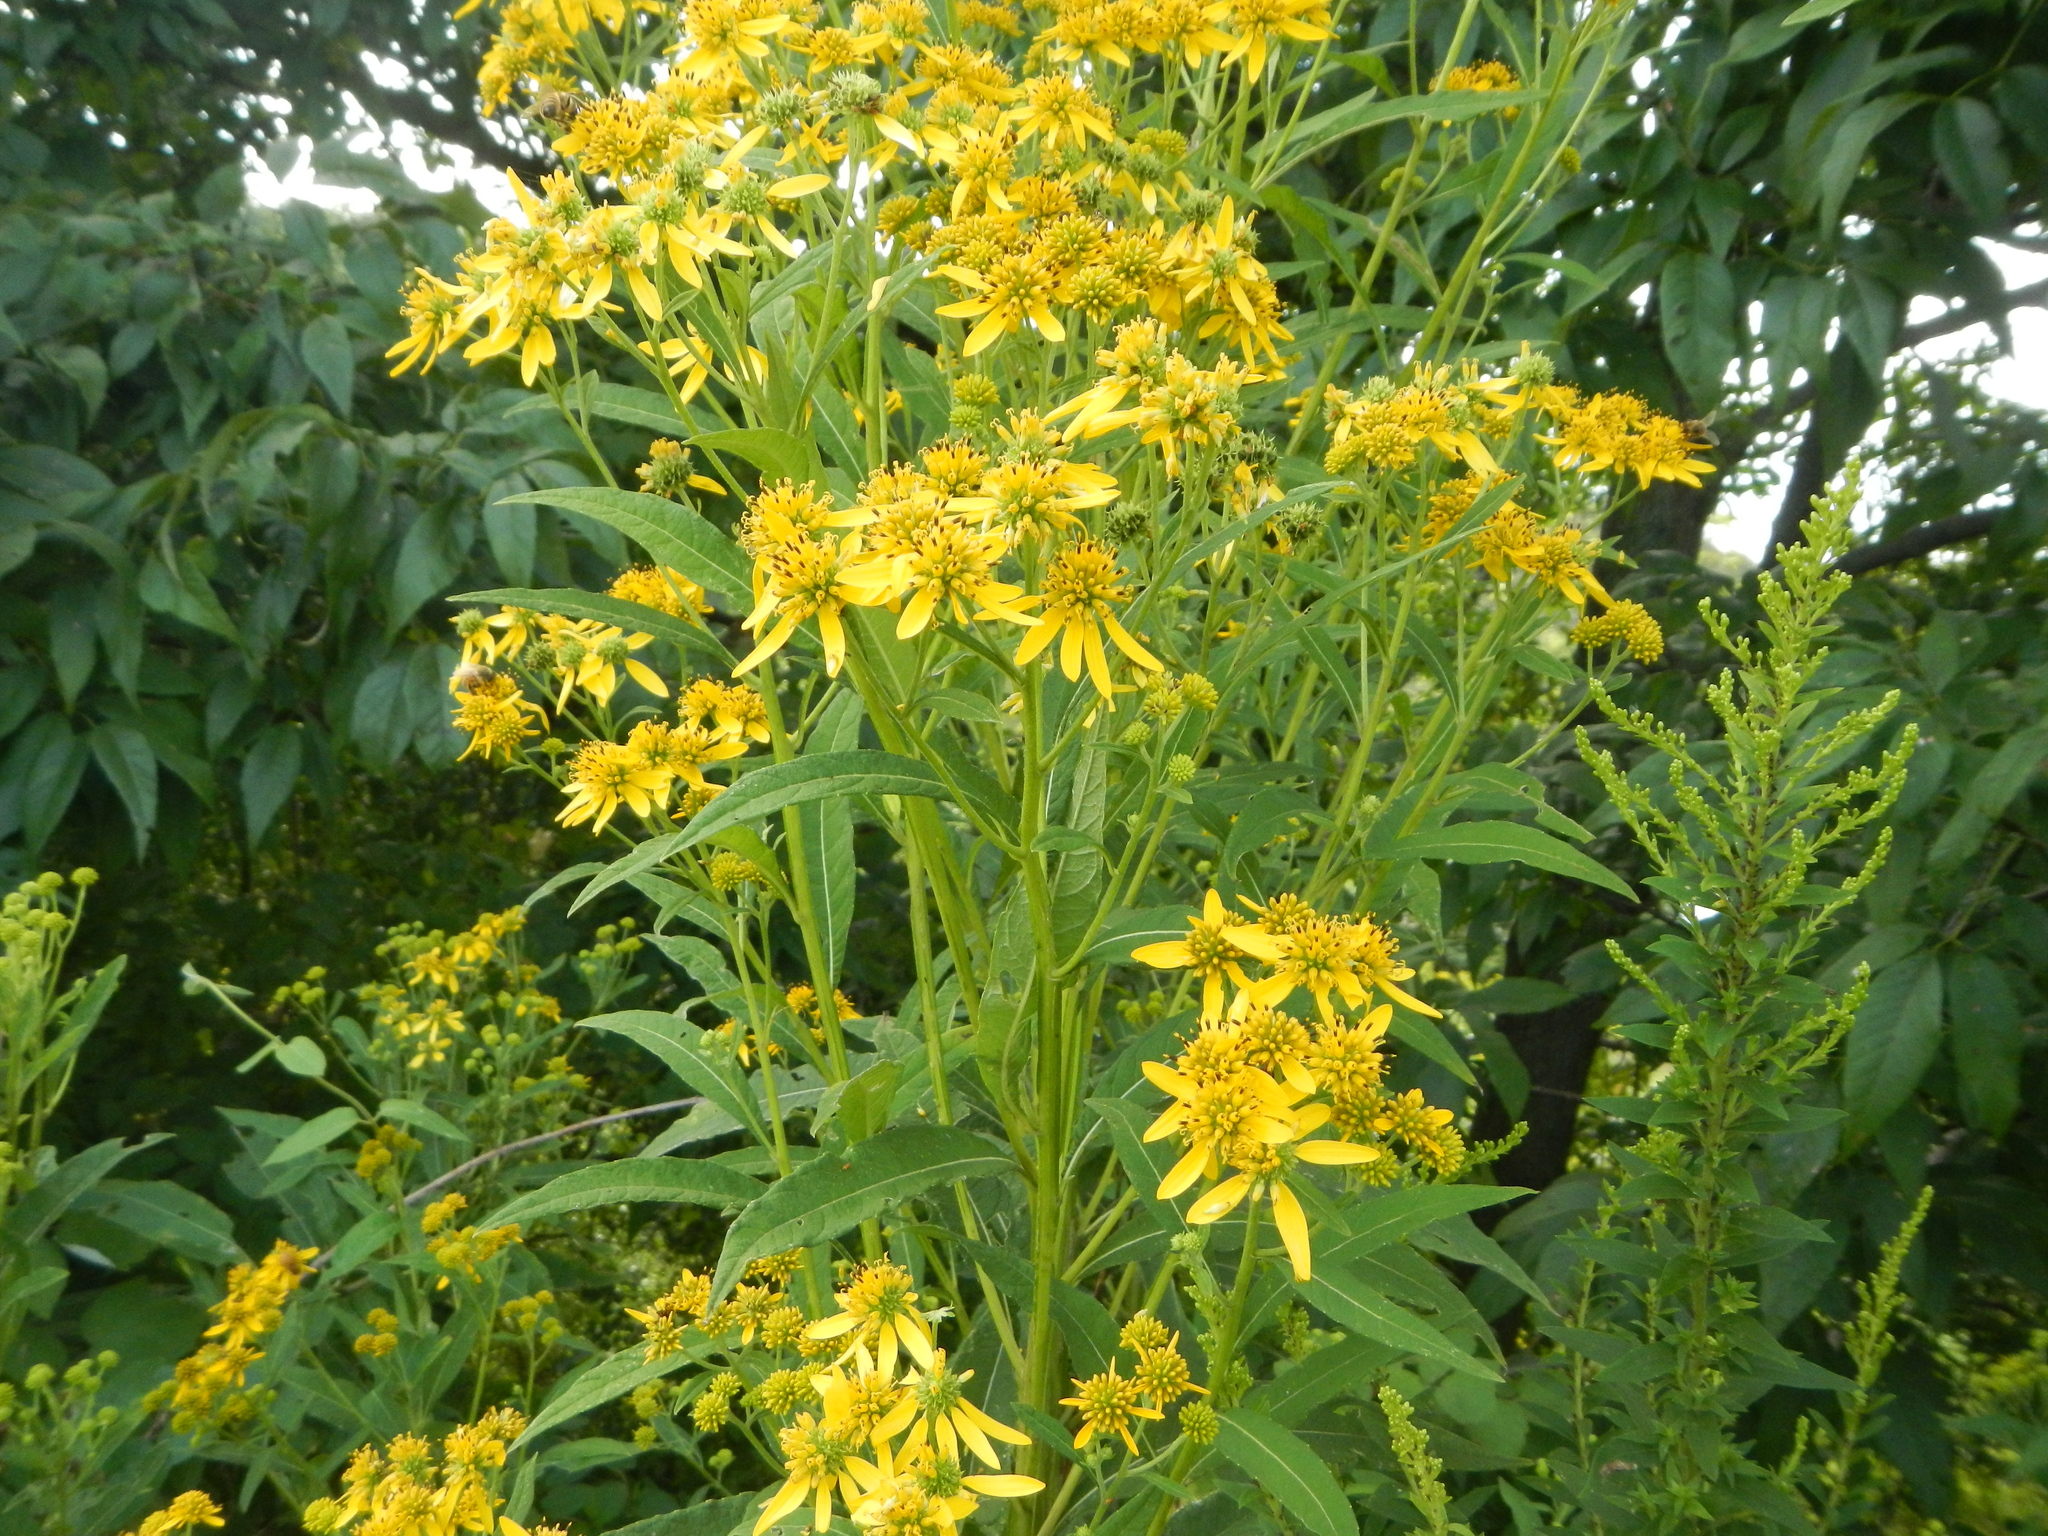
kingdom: Plantae
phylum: Tracheophyta
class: Magnoliopsida
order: Asterales
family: Asteraceae
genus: Verbesina
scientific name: Verbesina alternifolia
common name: Wingstem
